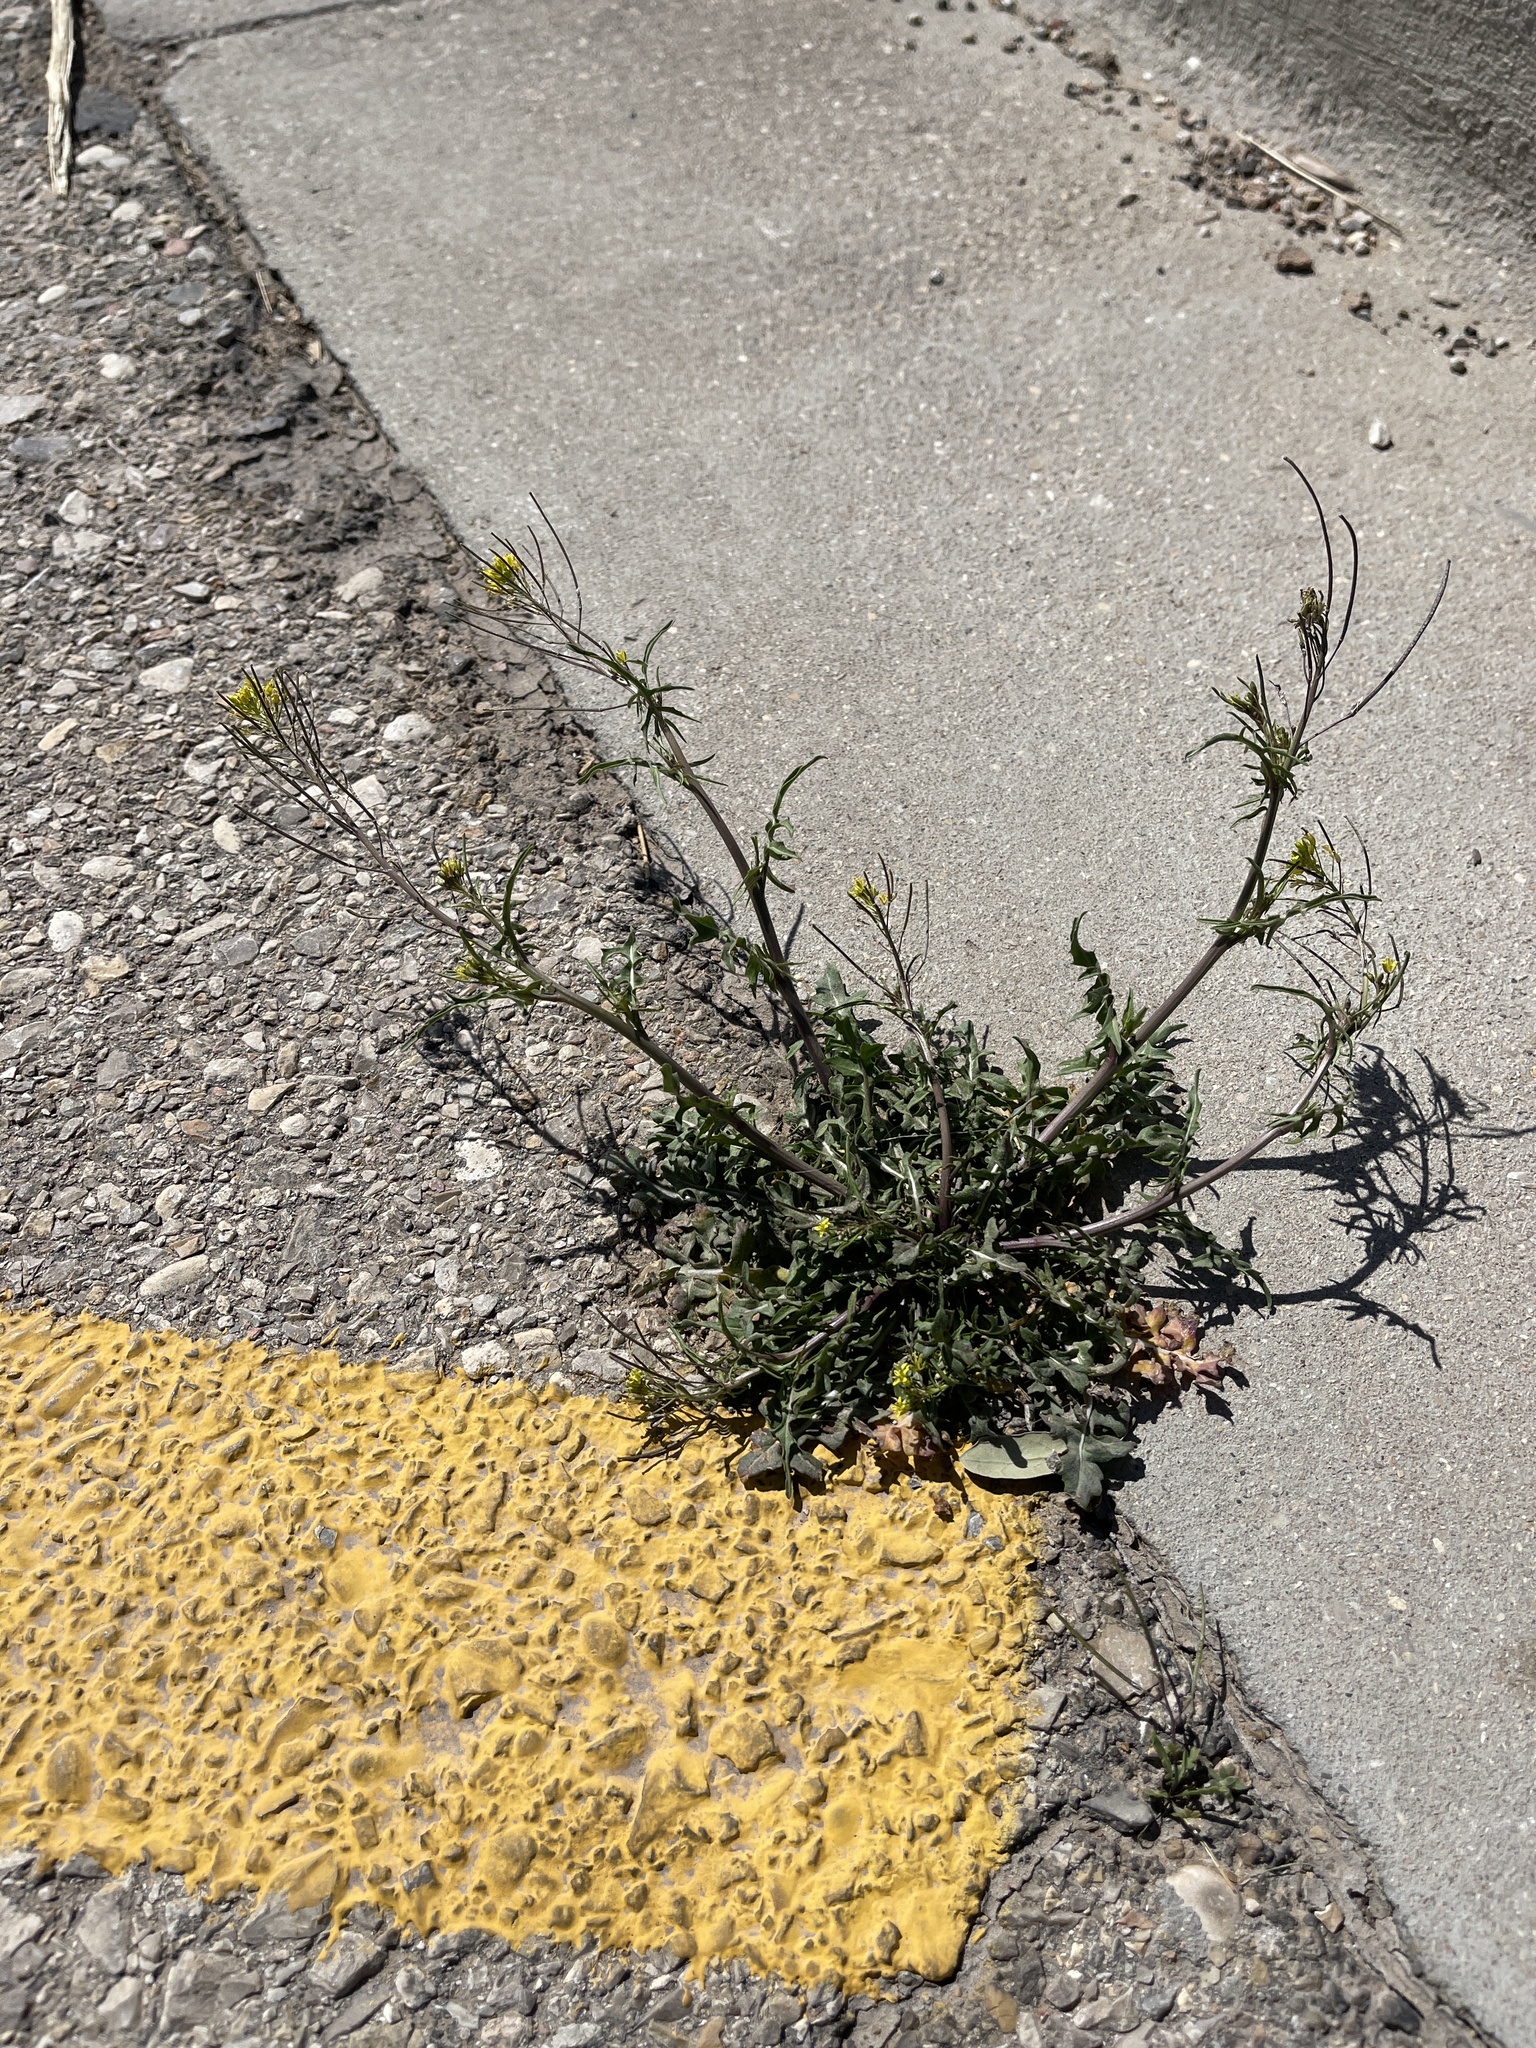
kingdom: Plantae
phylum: Tracheophyta
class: Magnoliopsida
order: Brassicales
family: Brassicaceae
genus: Sisymbrium
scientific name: Sisymbrium irio
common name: London rocket
